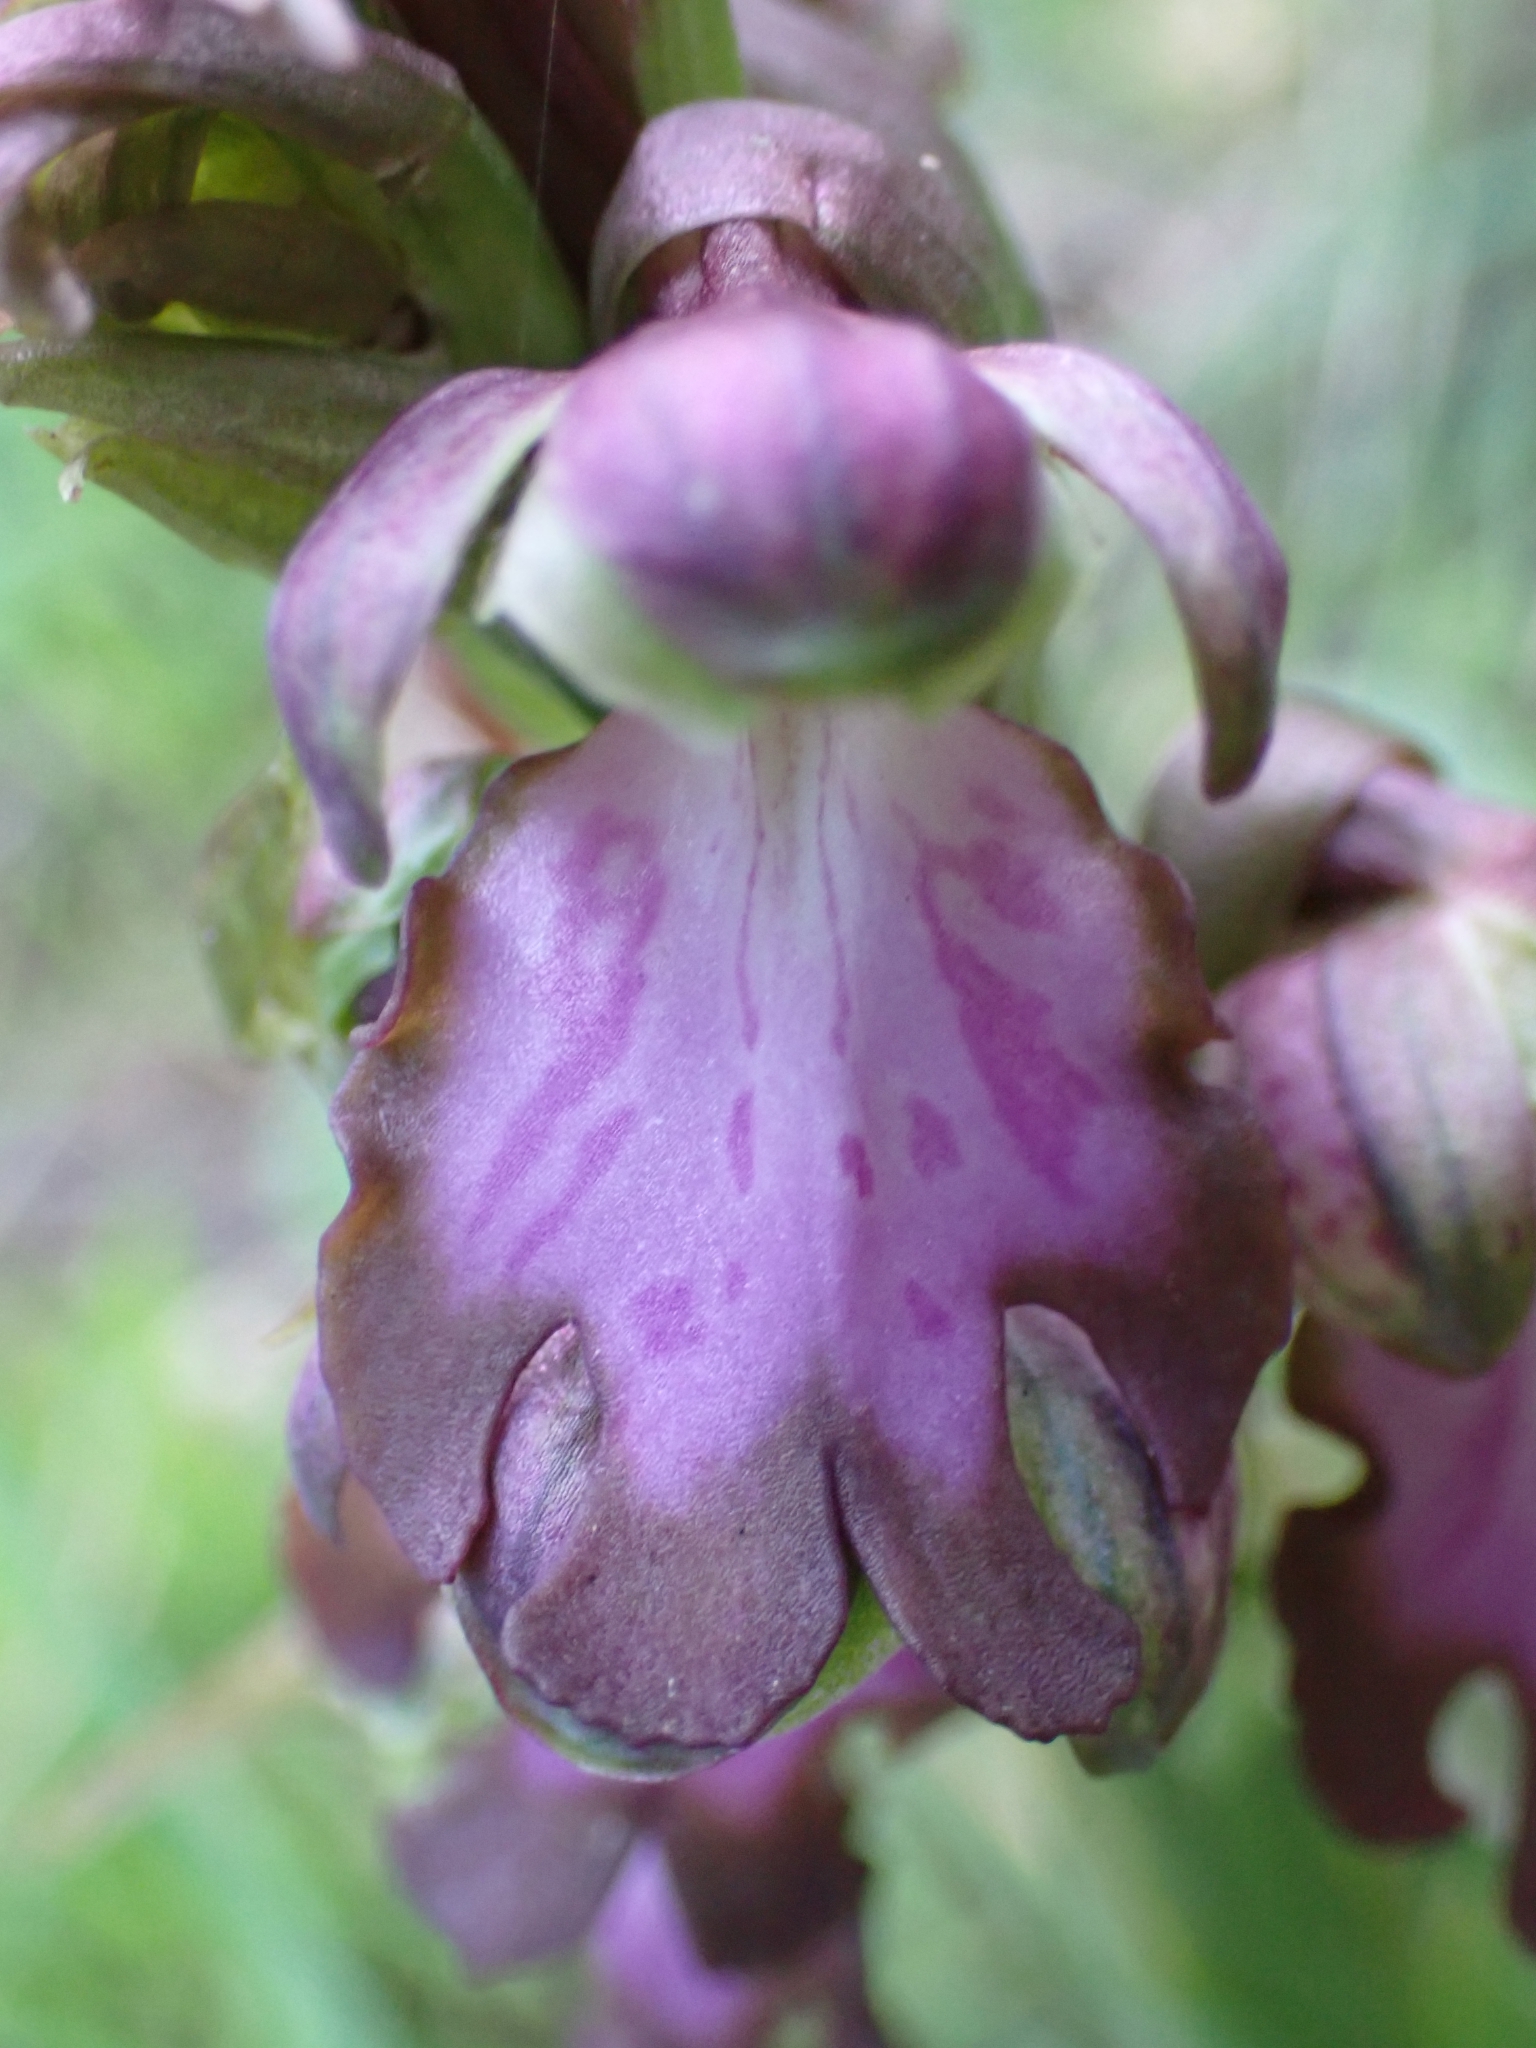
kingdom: Plantae
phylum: Tracheophyta
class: Liliopsida
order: Asparagales
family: Orchidaceae
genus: Himantoglossum
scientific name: Himantoglossum robertianum
